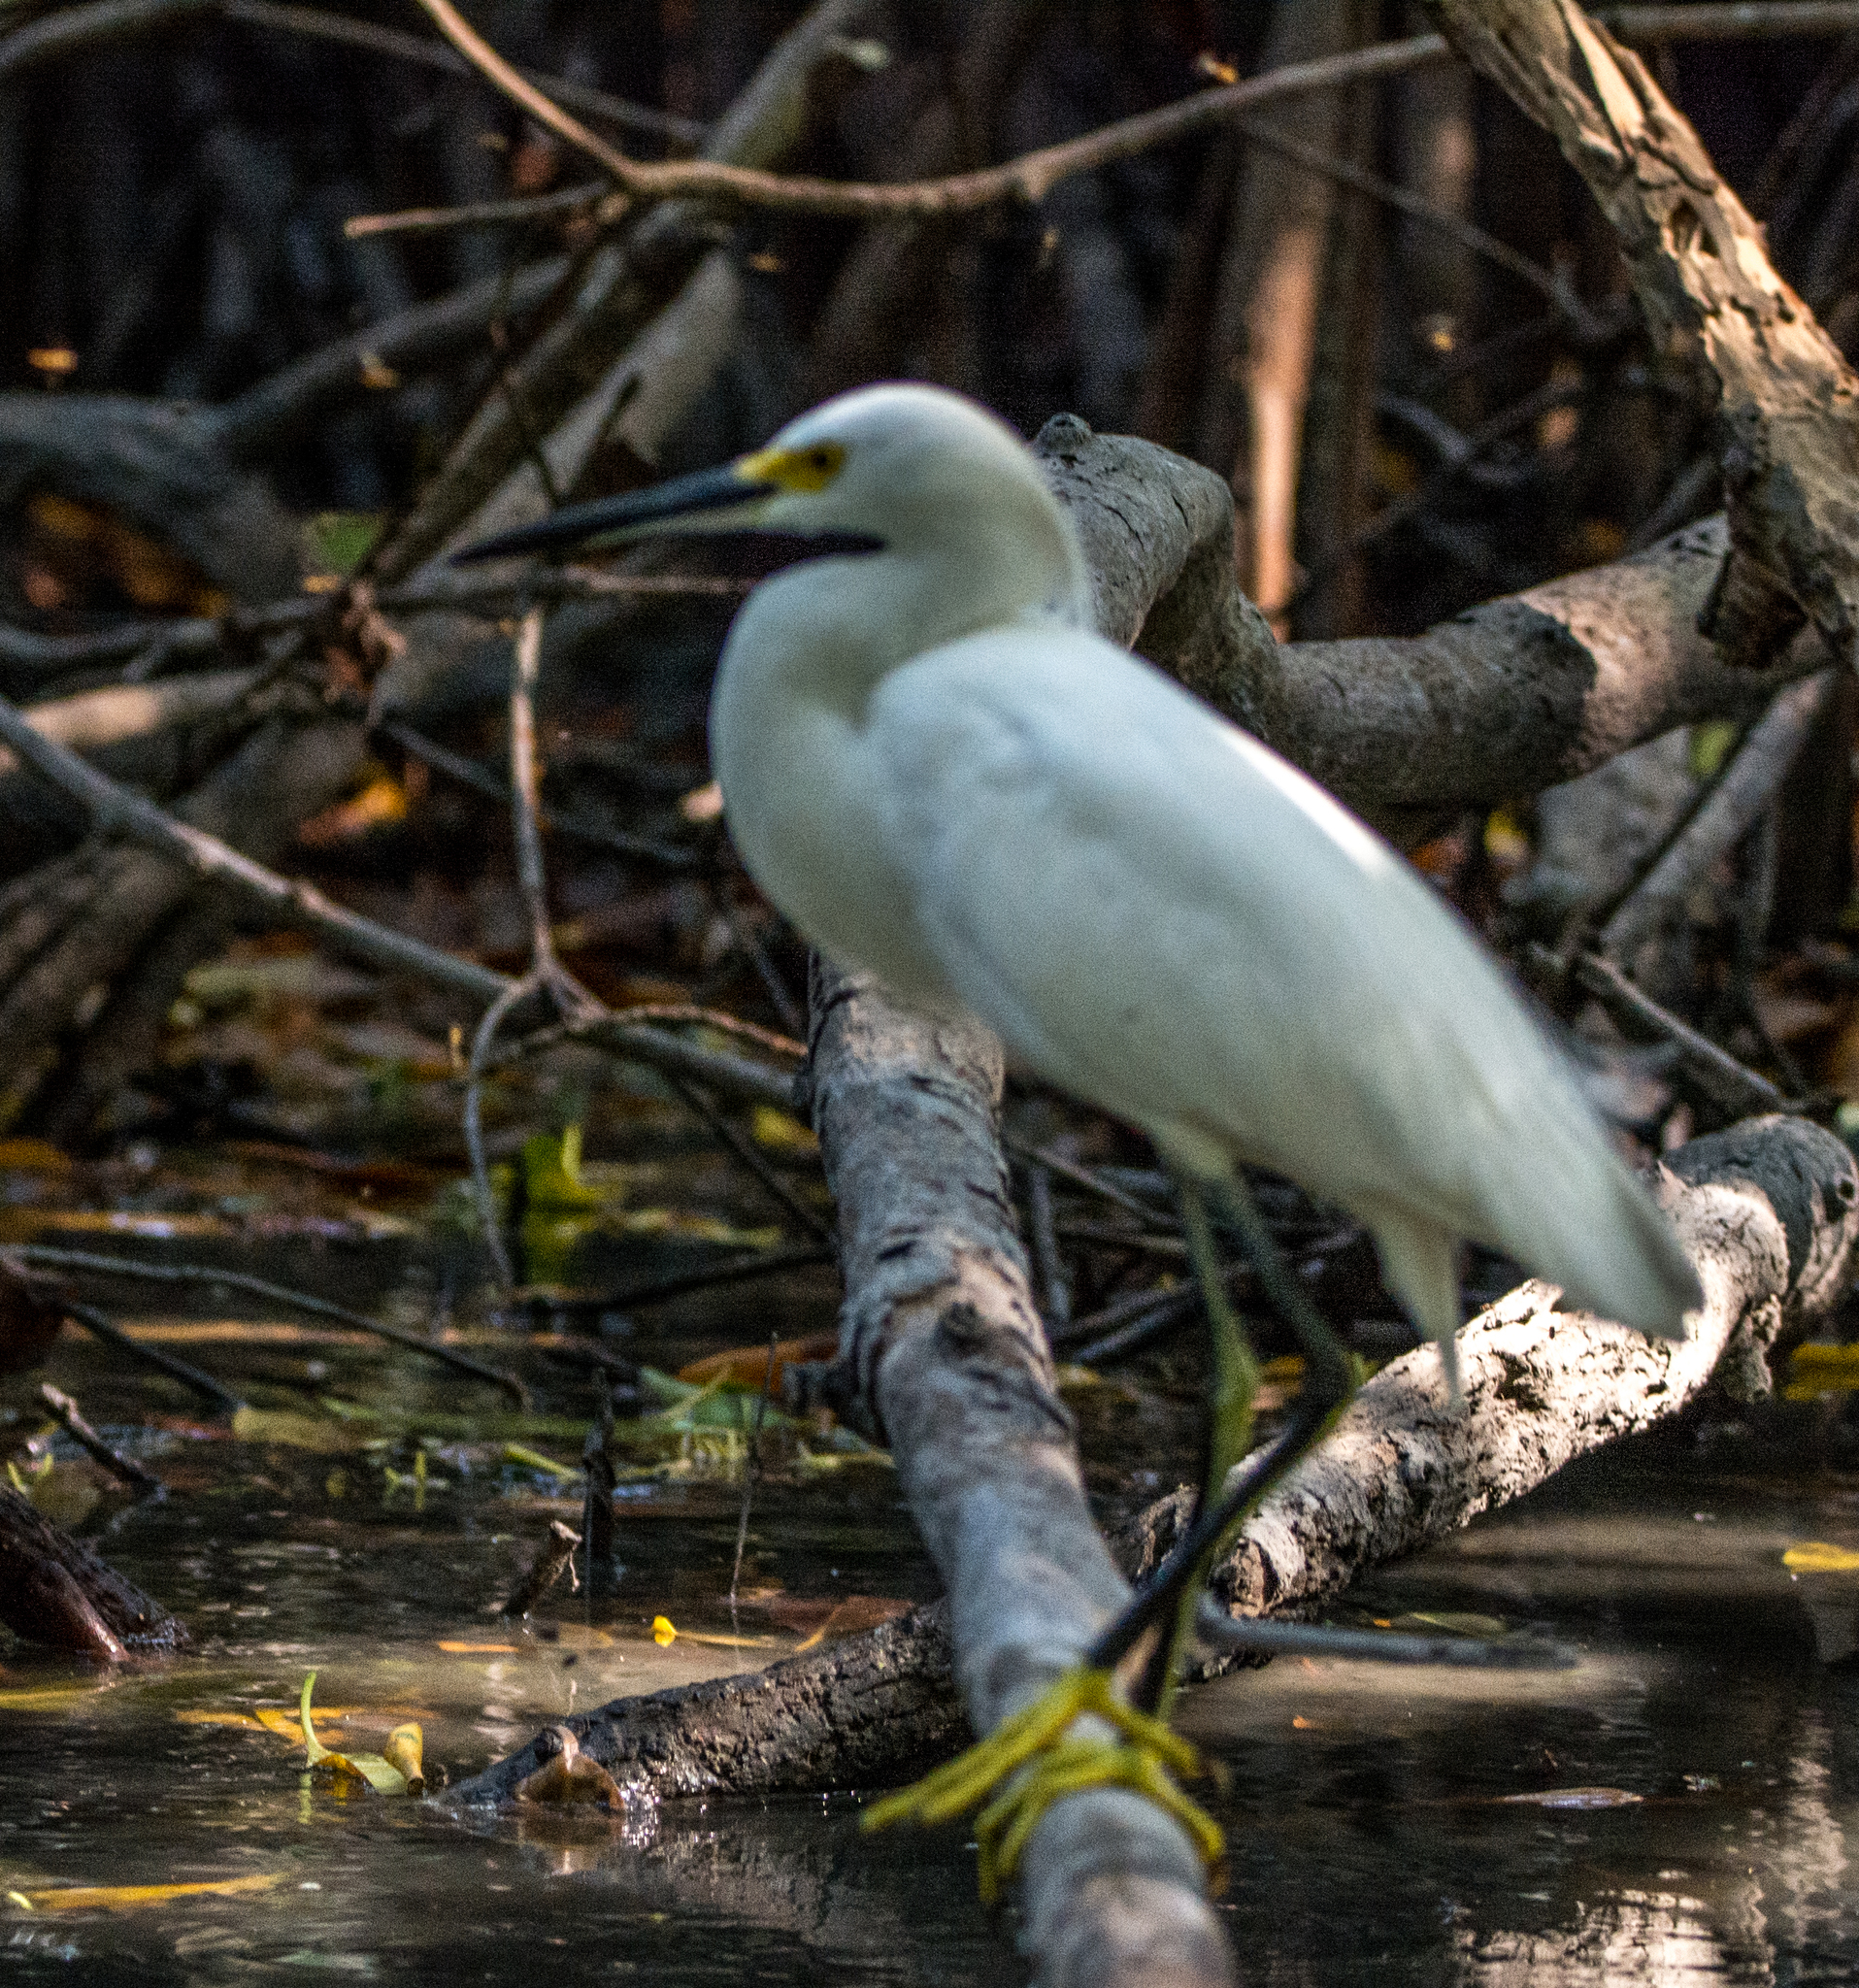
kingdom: Animalia
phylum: Chordata
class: Aves
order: Pelecaniformes
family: Ardeidae
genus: Egretta
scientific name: Egretta thula
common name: Snowy egret
